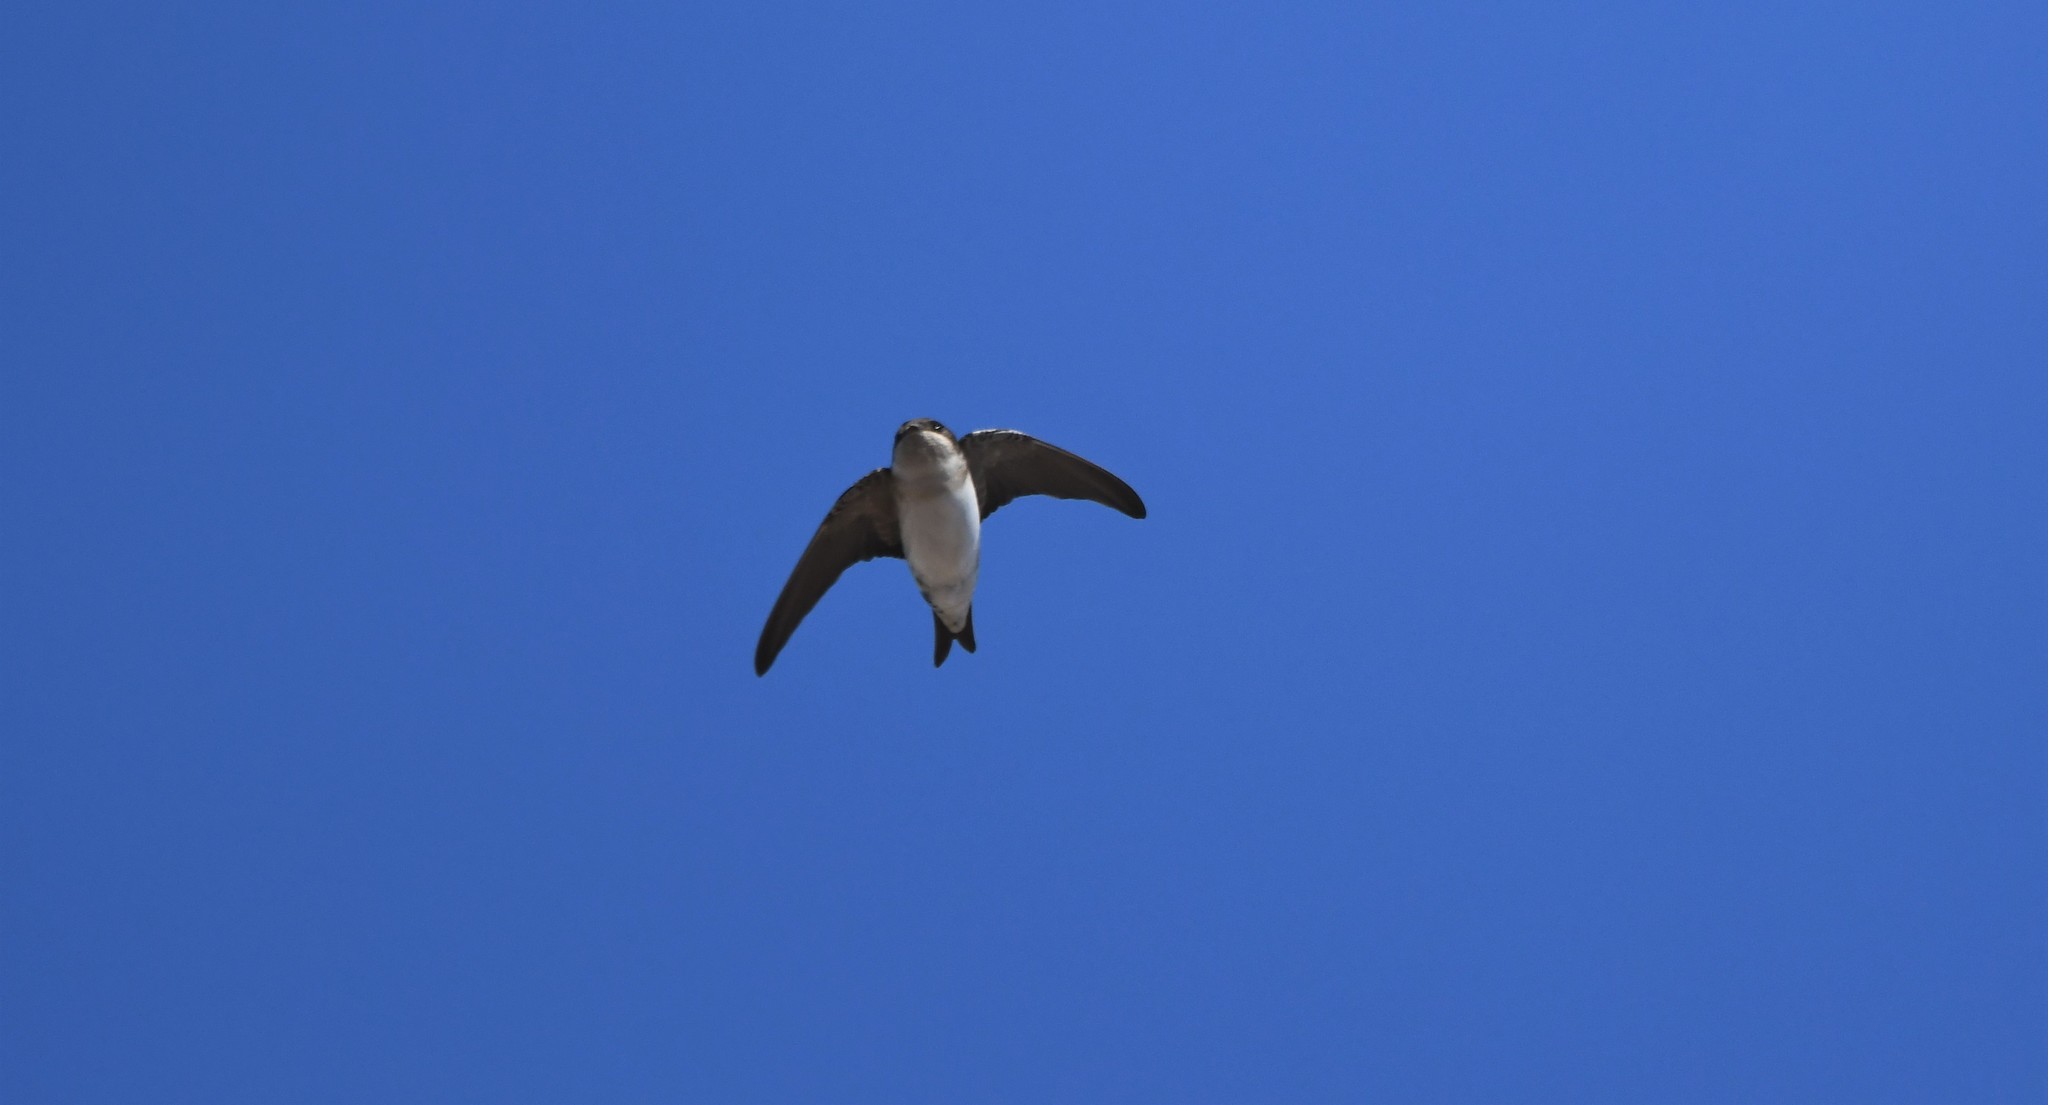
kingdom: Animalia
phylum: Chordata
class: Aves
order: Passeriformes
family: Hirundinidae
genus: Delichon
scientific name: Delichon urbicum
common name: Common house martin
